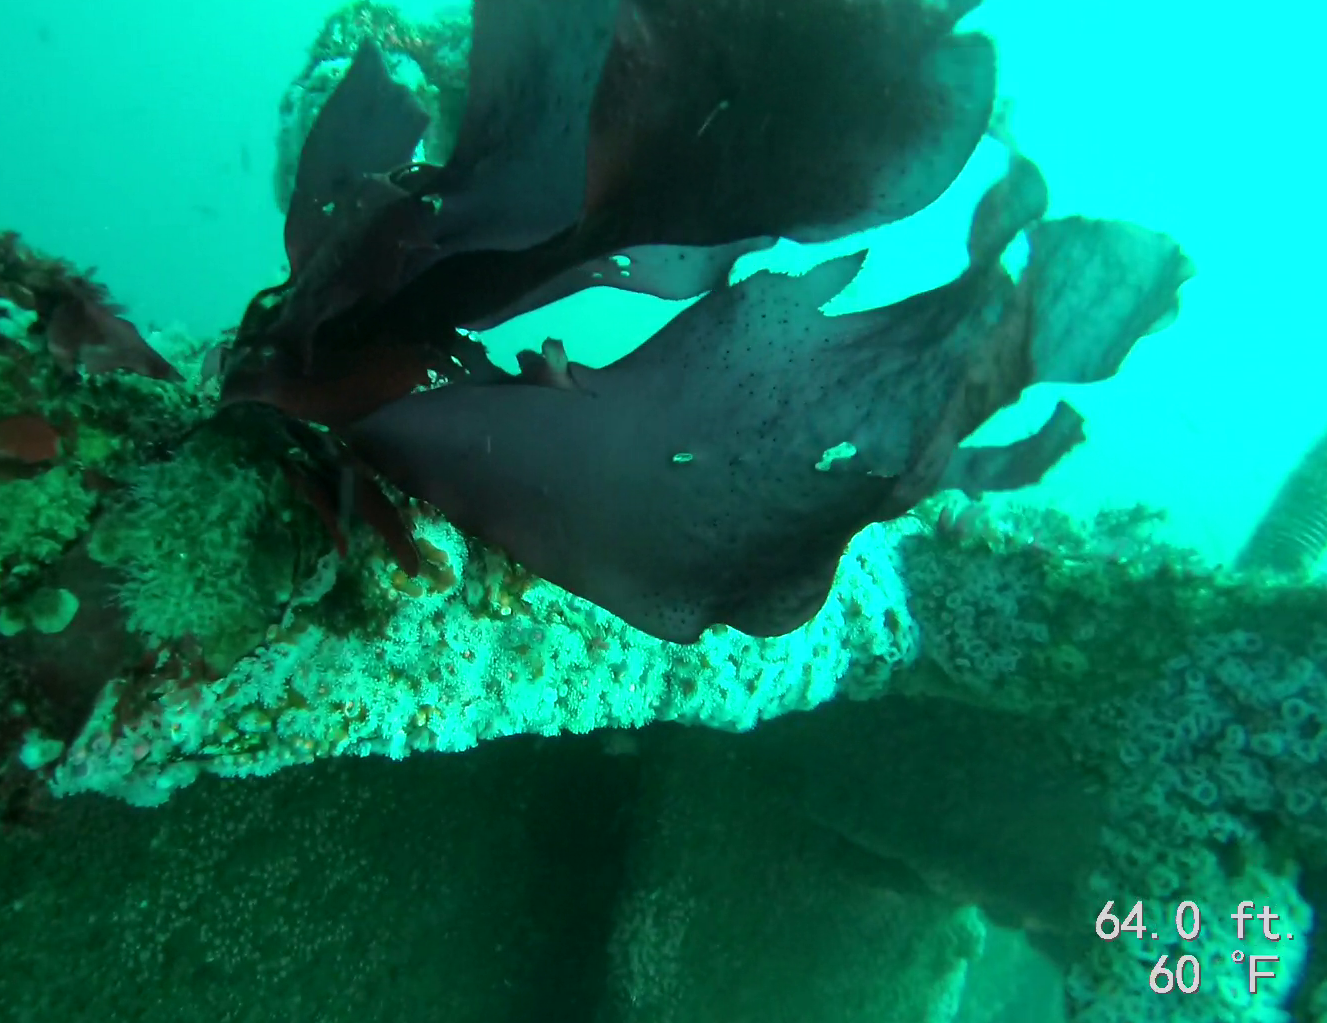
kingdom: Plantae
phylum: Rhodophyta
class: Florideophyceae
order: Gigartinales
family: Gigartinaceae
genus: Chondracanthus
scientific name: Chondracanthus exasperatus
